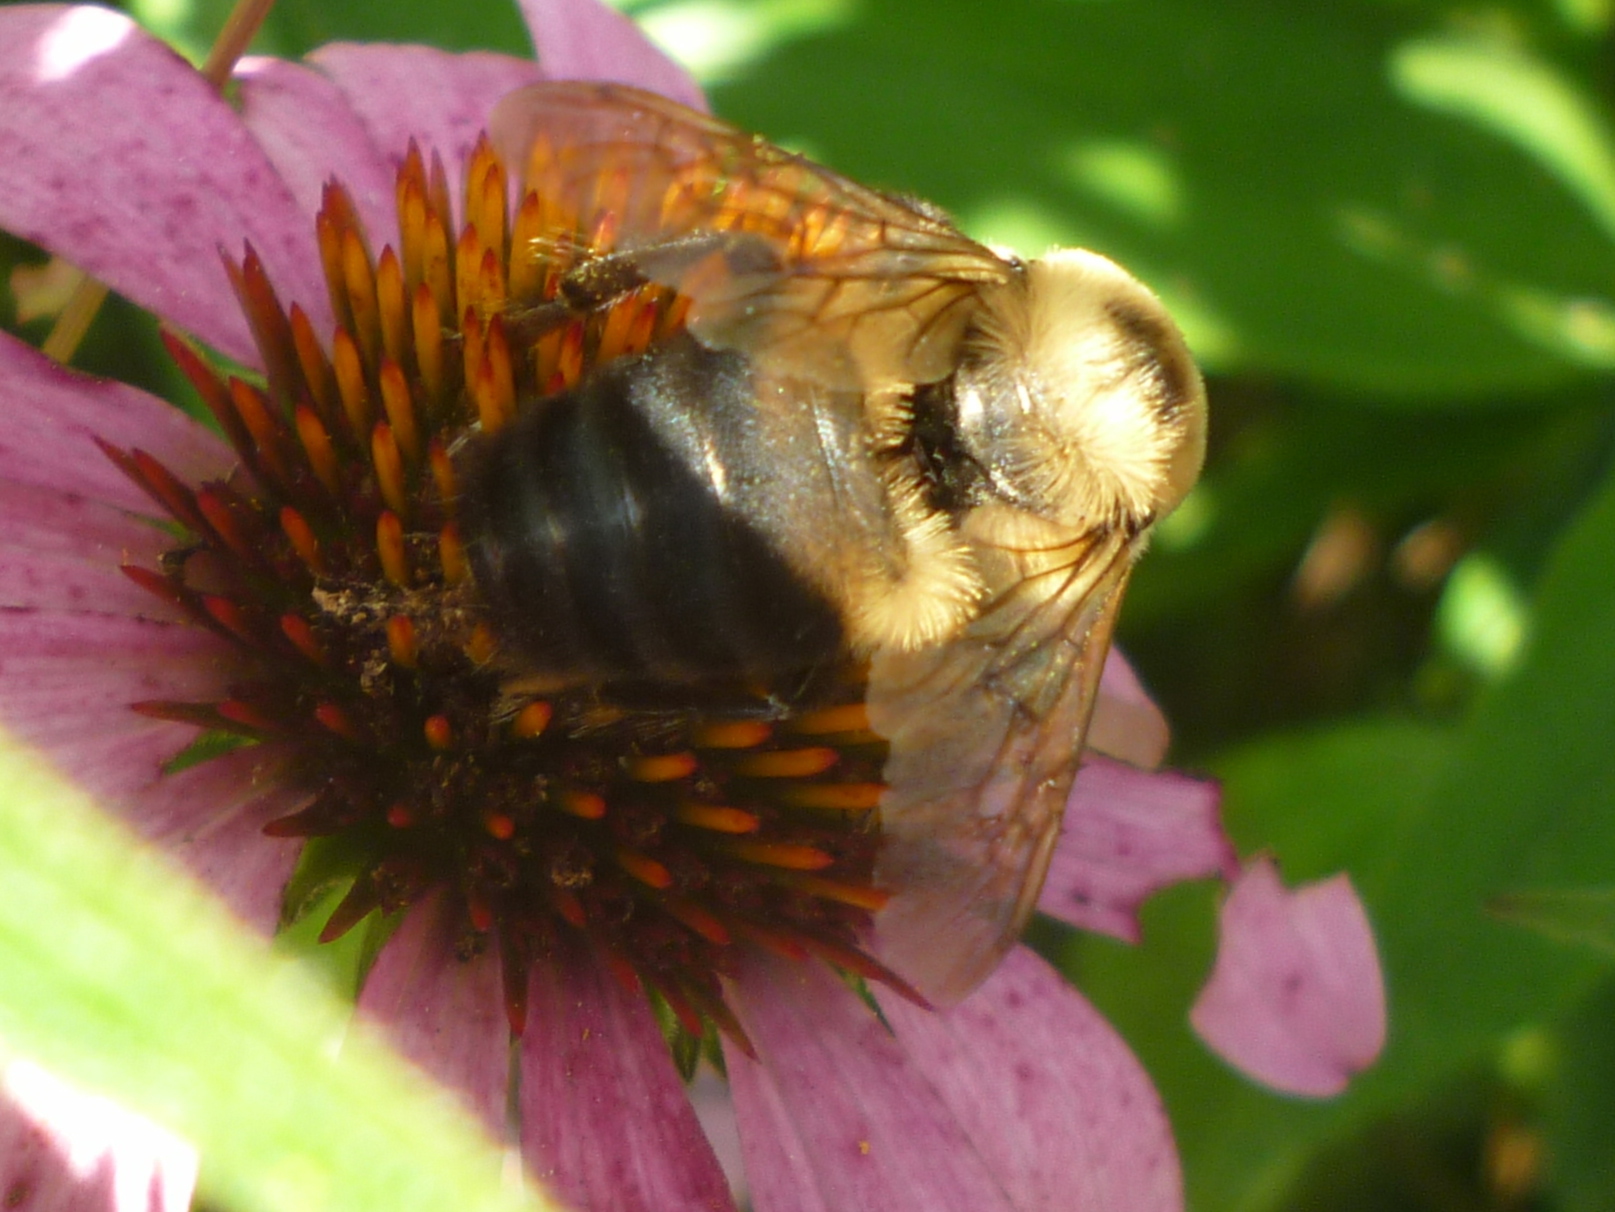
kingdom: Animalia
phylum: Arthropoda
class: Insecta
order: Hymenoptera
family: Apidae
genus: Bombus
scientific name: Bombus griseocollis
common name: Brown-belted bumble bee
